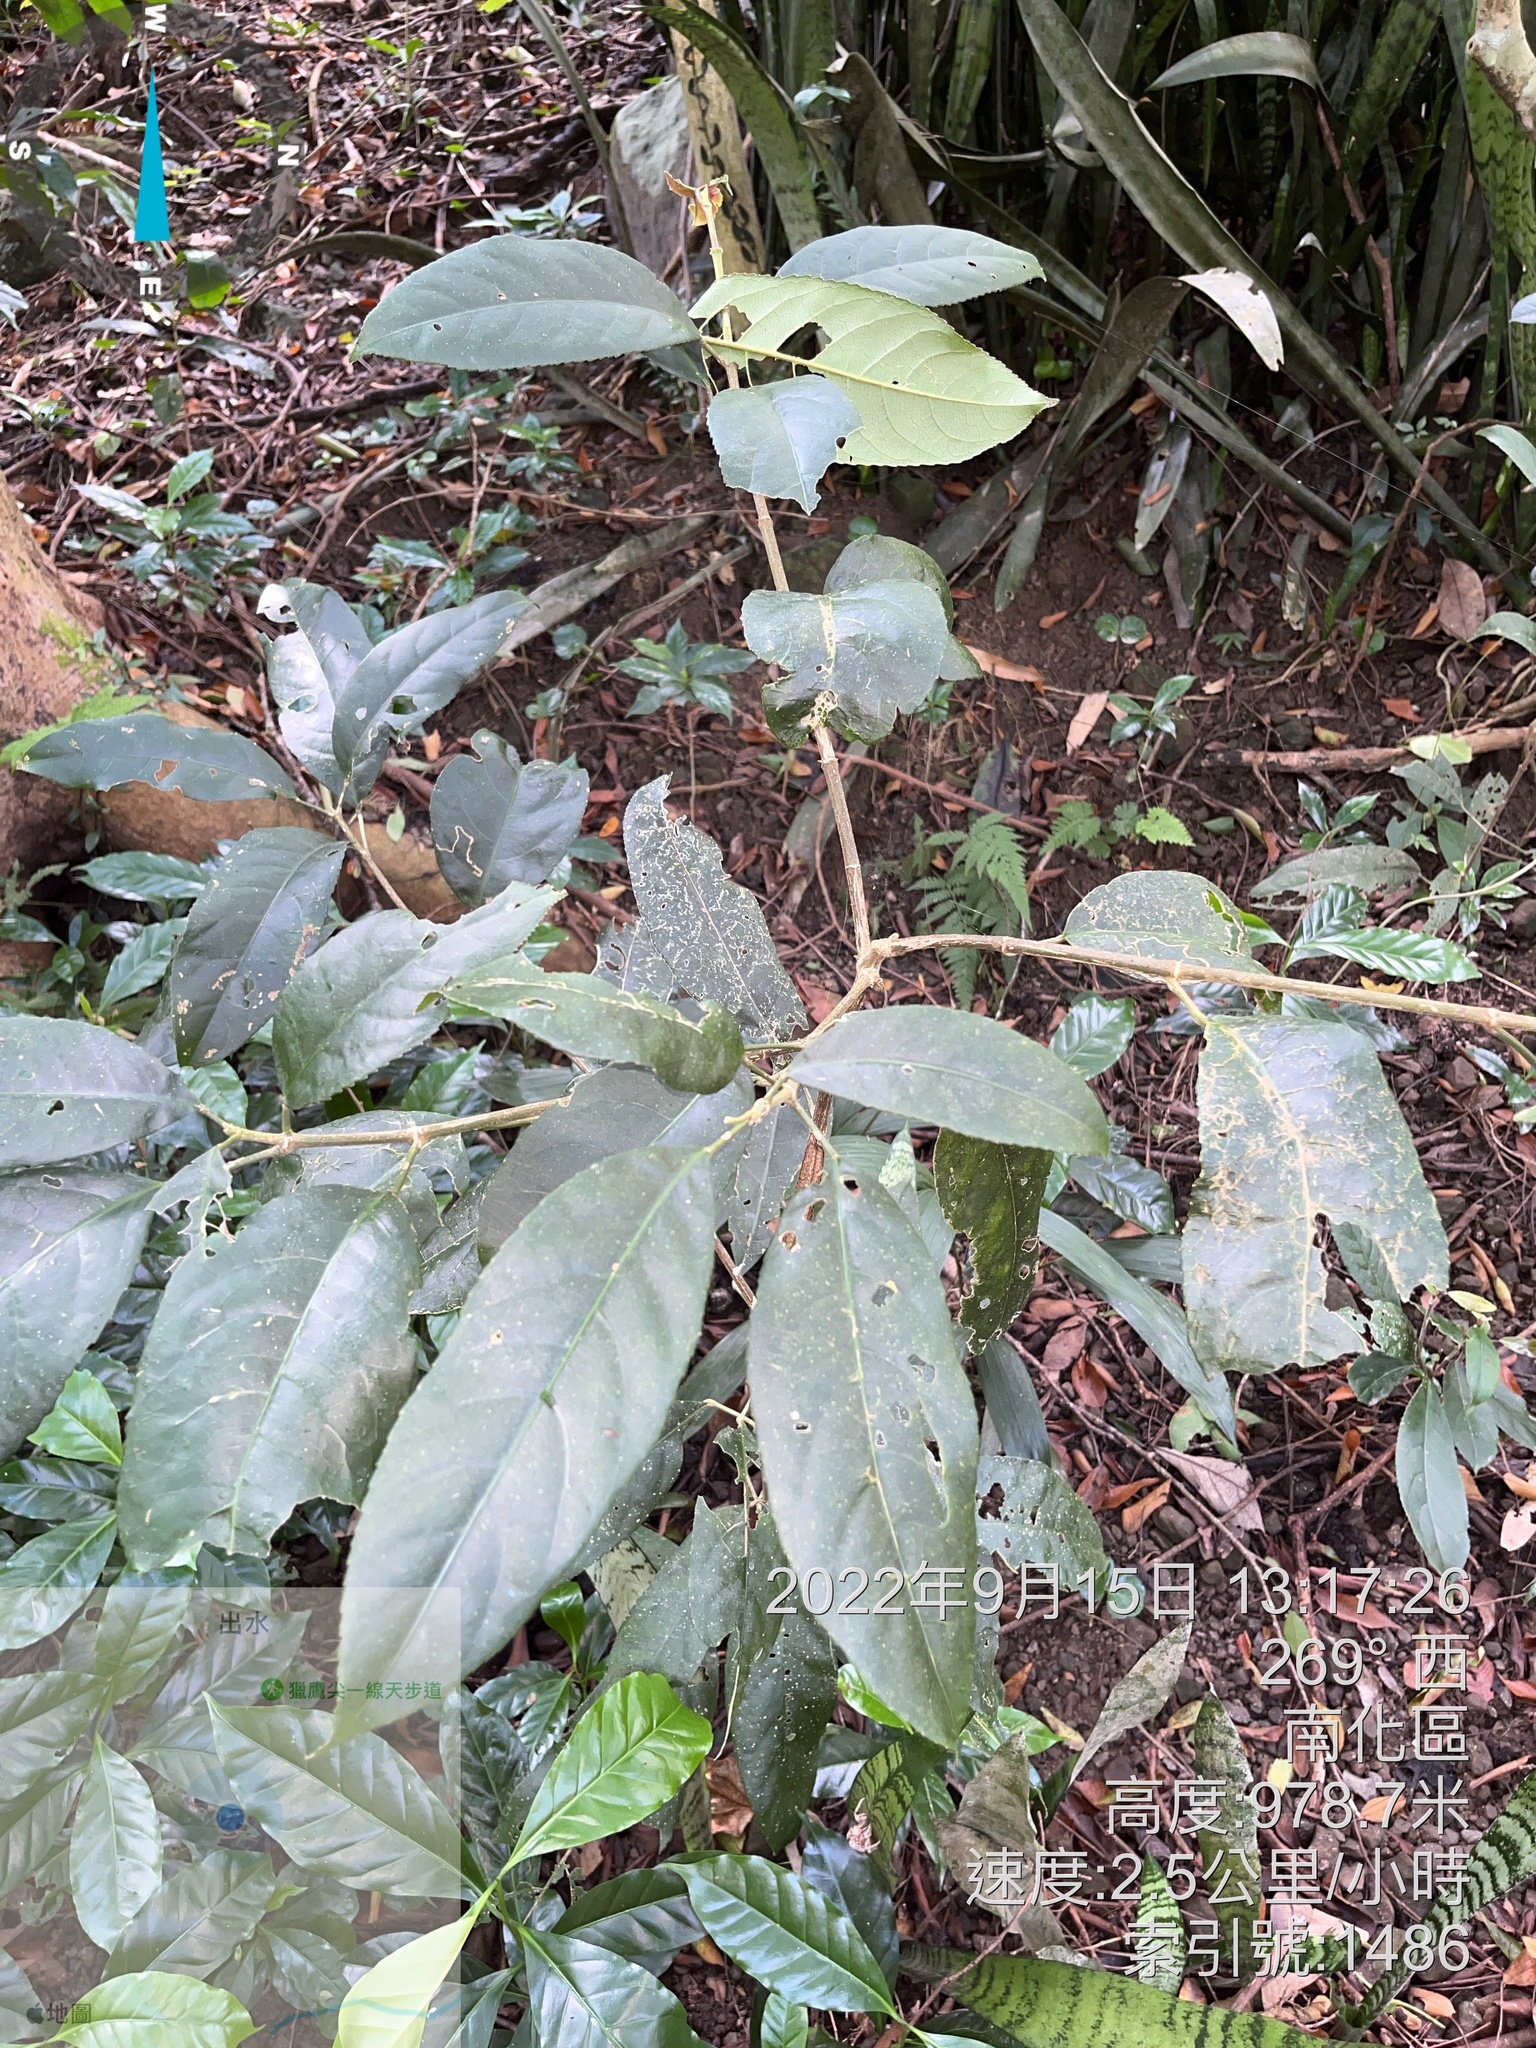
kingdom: Plantae
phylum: Tracheophyta
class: Magnoliopsida
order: Crossosomatales
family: Staphyleaceae
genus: Turpinia
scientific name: Turpinia formosana
